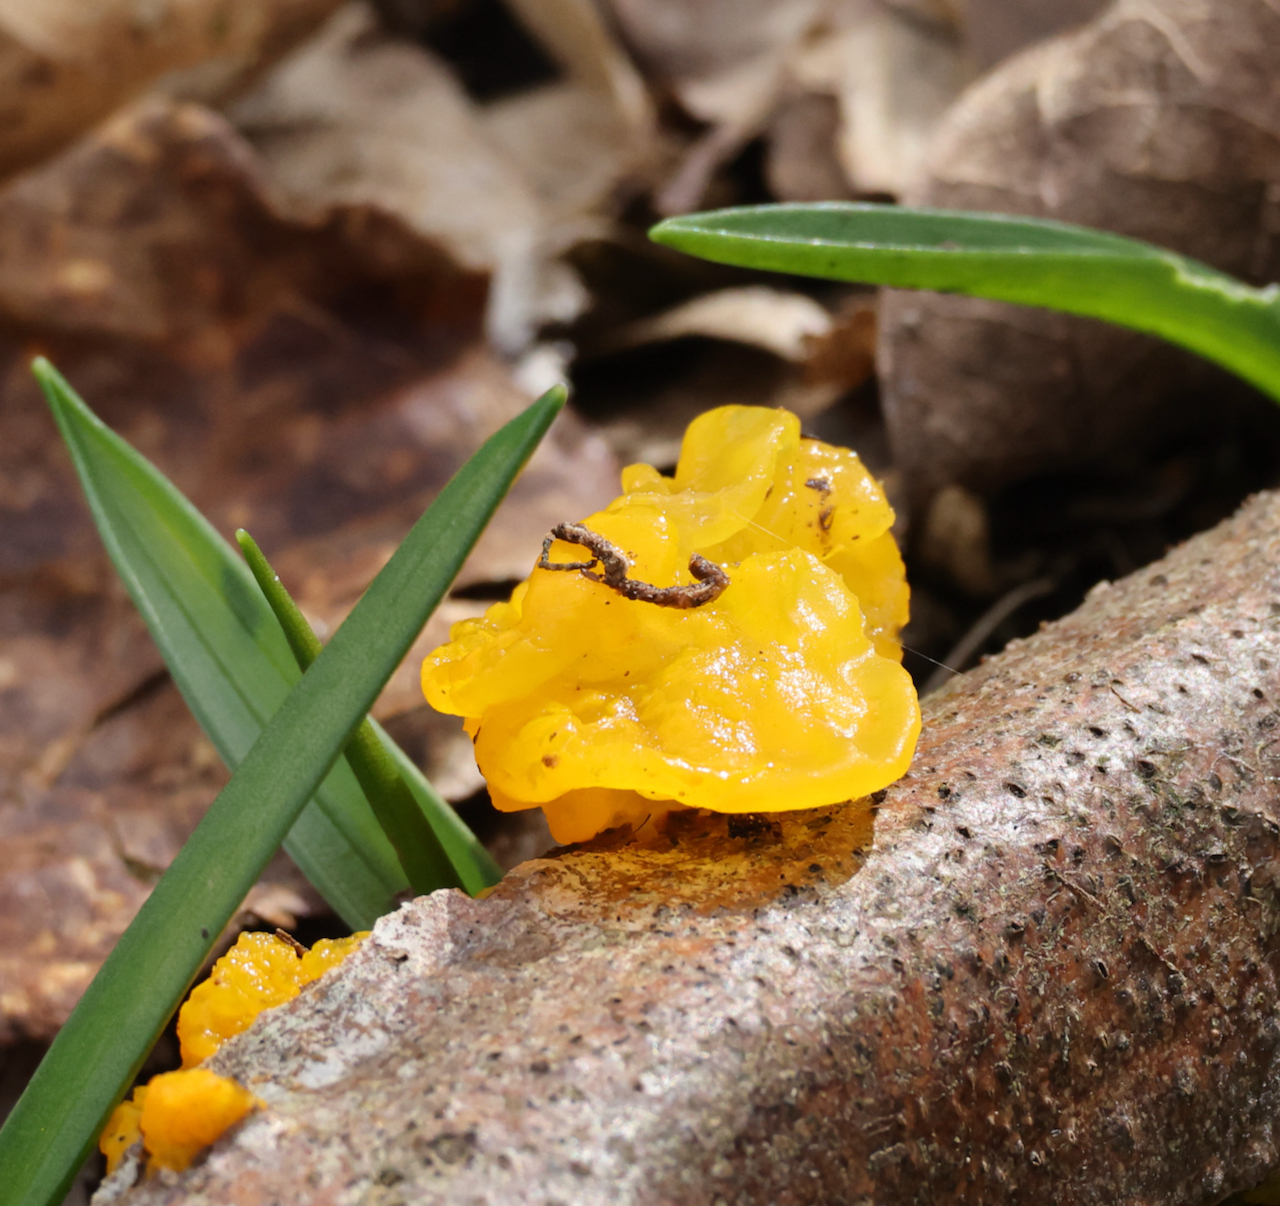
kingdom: Fungi
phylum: Basidiomycota
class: Tremellomycetes
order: Tremellales
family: Tremellaceae
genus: Tremella
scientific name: Tremella mesenterica
